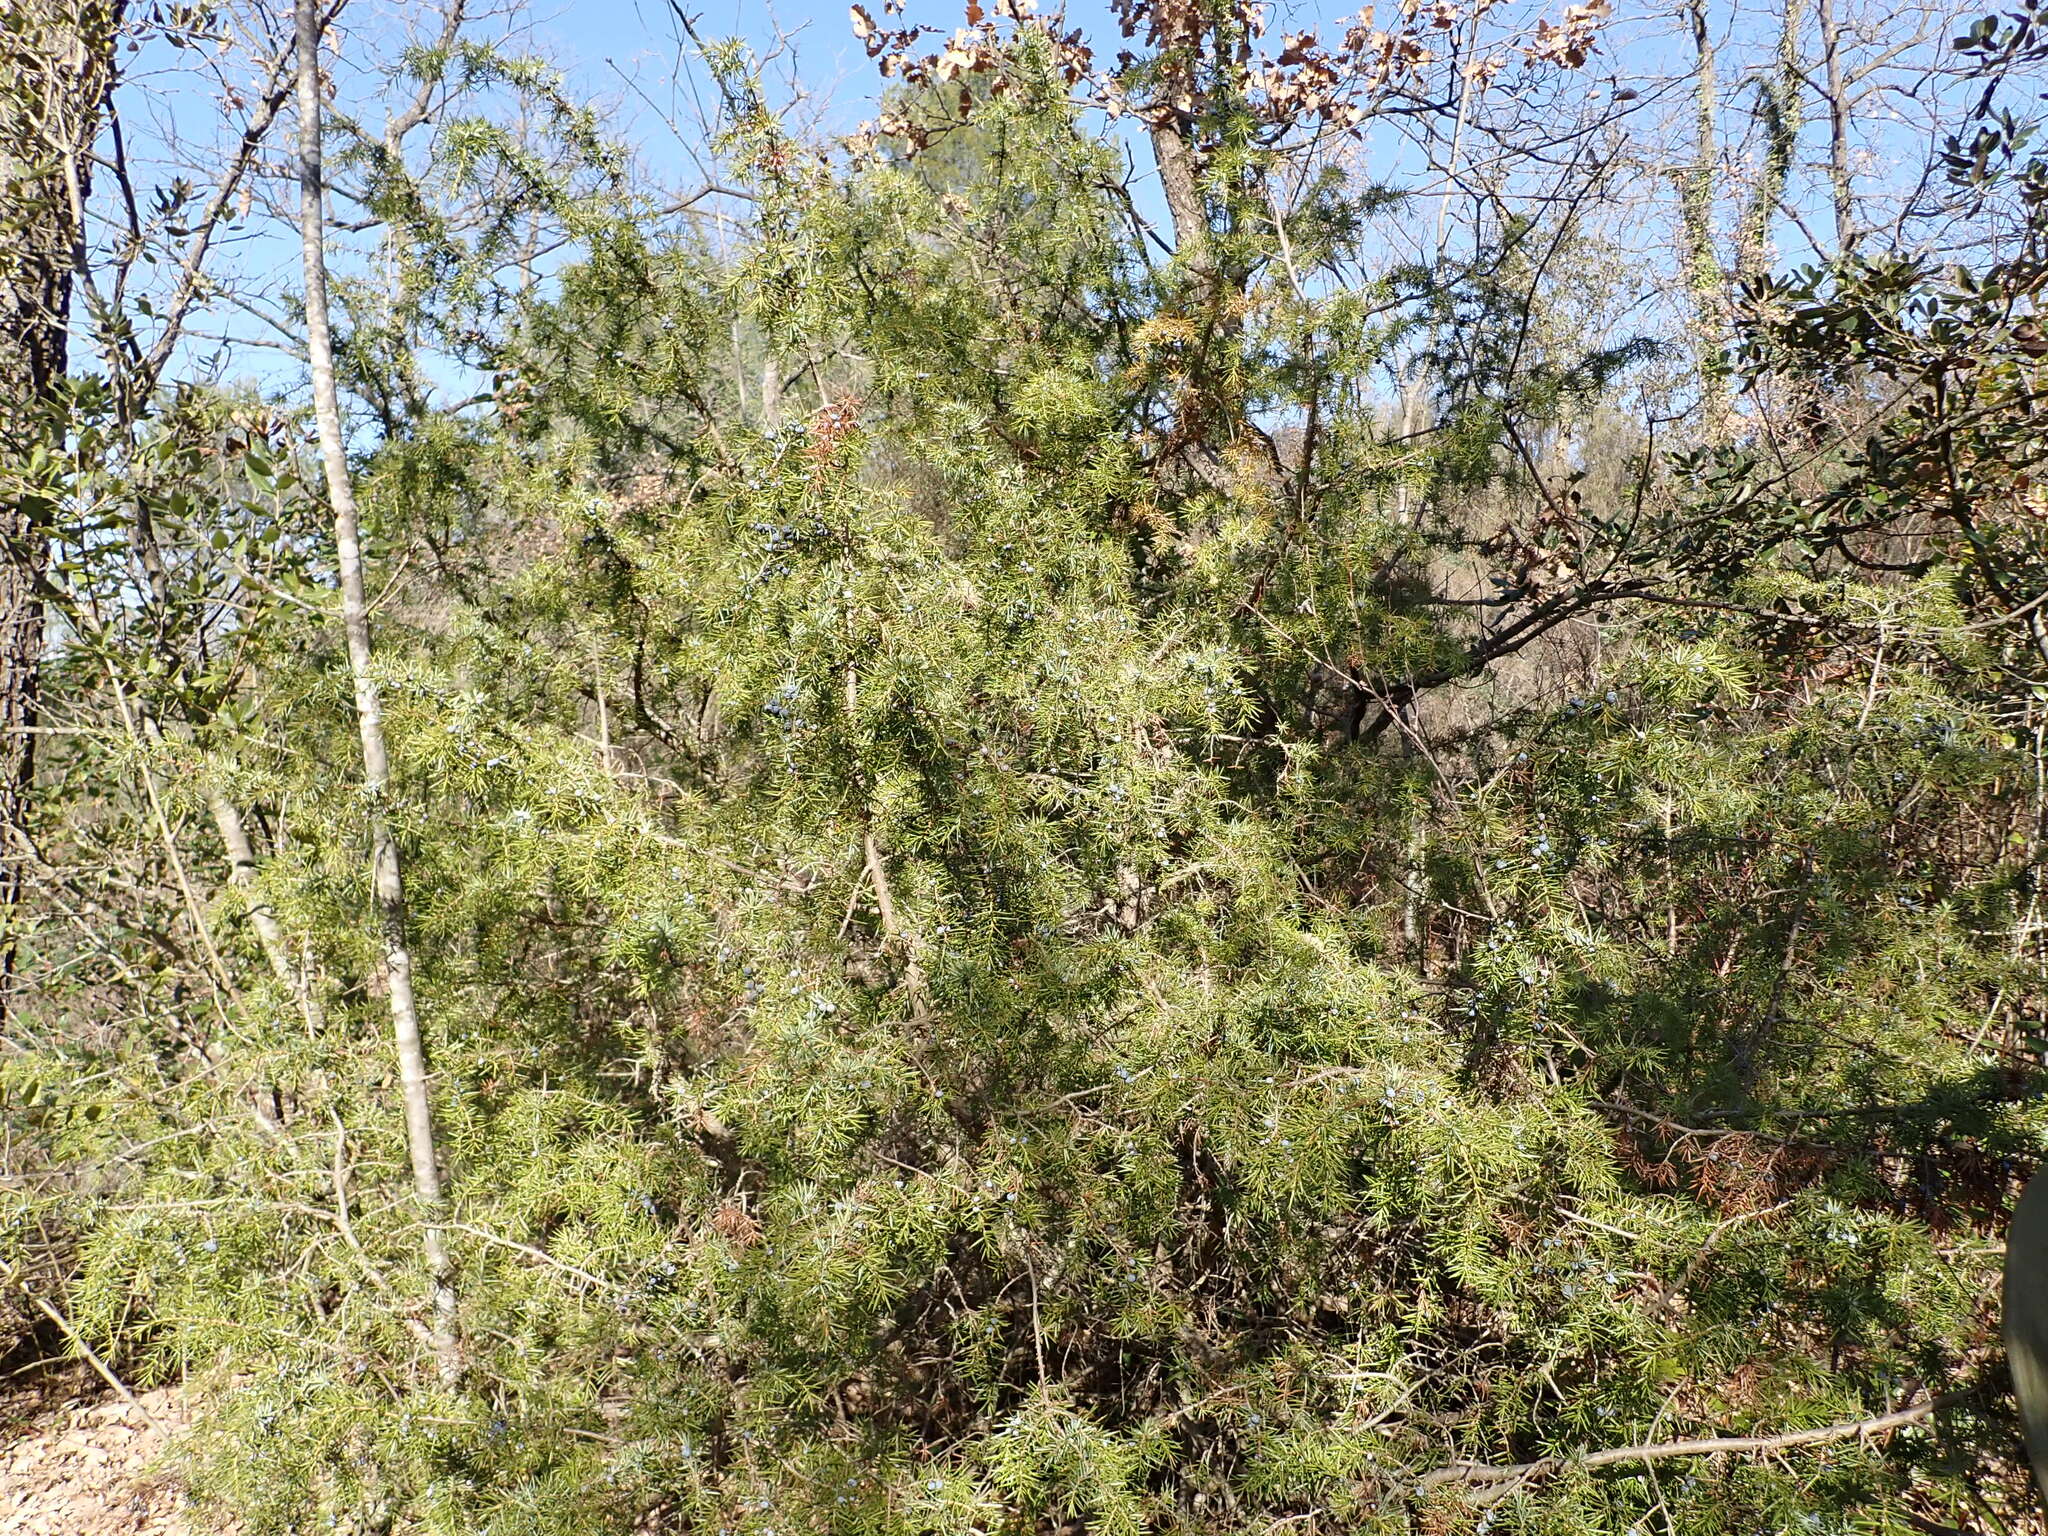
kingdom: Plantae
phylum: Tracheophyta
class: Pinopsida
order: Pinales
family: Cupressaceae
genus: Juniperus
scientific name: Juniperus communis
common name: Common juniper
